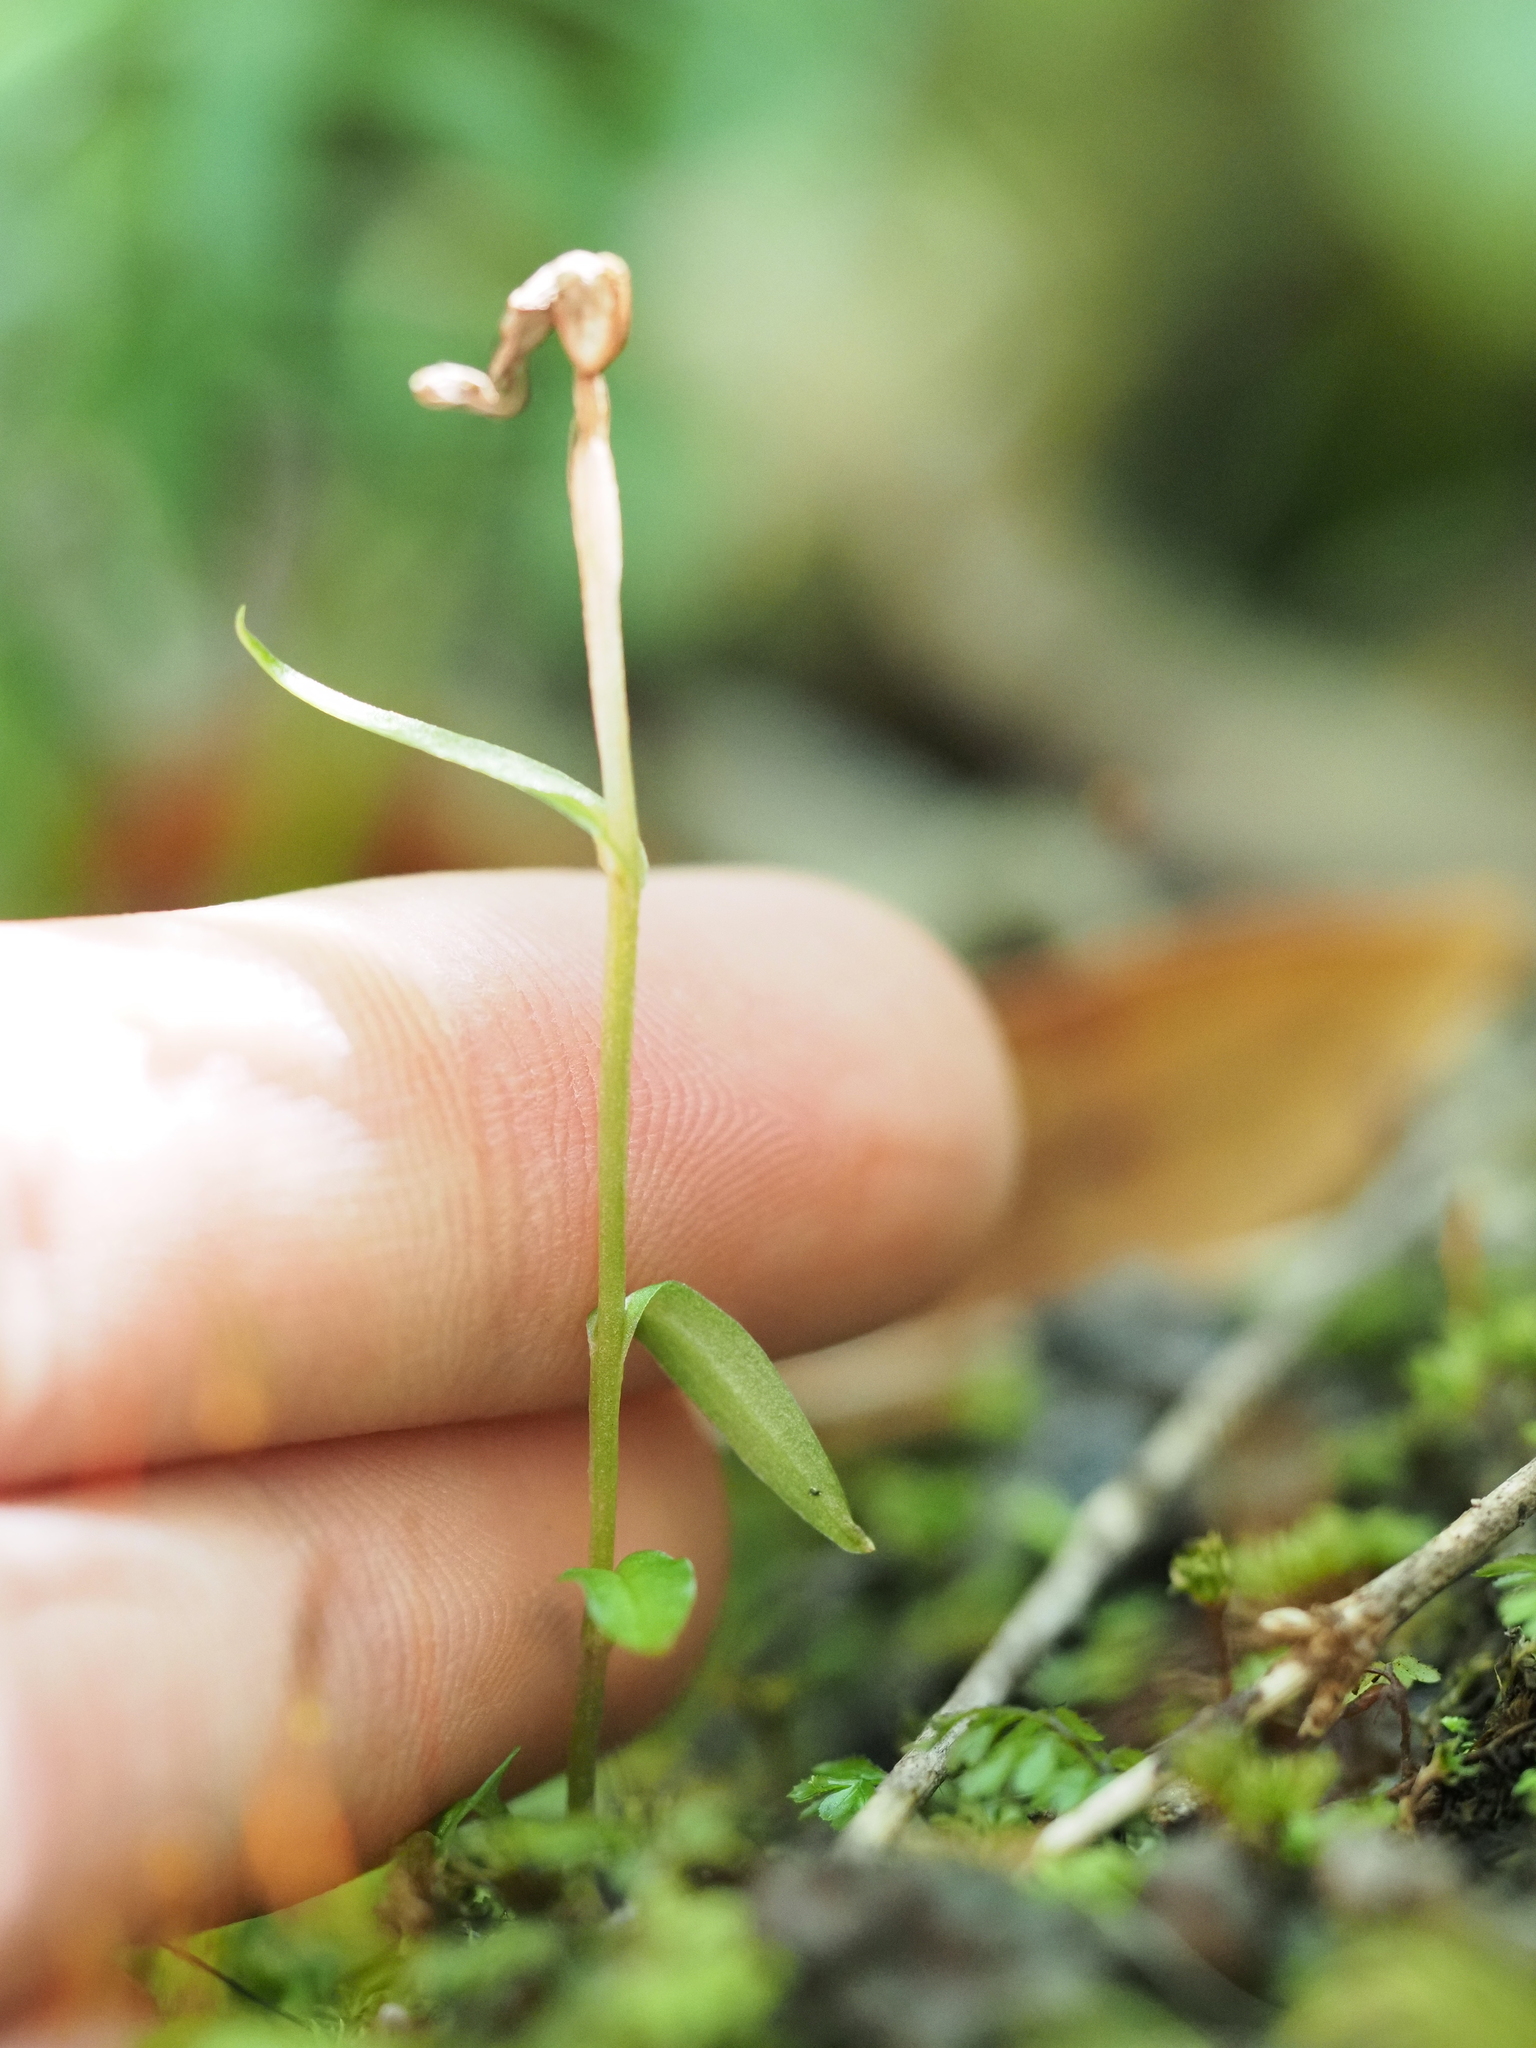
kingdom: Plantae
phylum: Tracheophyta
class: Liliopsida
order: Asparagales
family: Orchidaceae
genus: Pterostylis
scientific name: Pterostylis trullifolia
